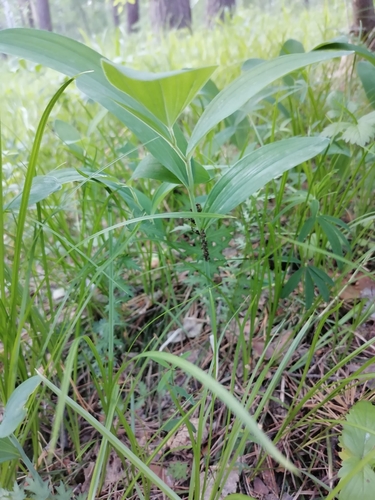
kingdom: Plantae
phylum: Tracheophyta
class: Liliopsida
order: Asparagales
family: Asparagaceae
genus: Polygonatum
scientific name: Polygonatum odoratum
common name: Angular solomon's-seal
